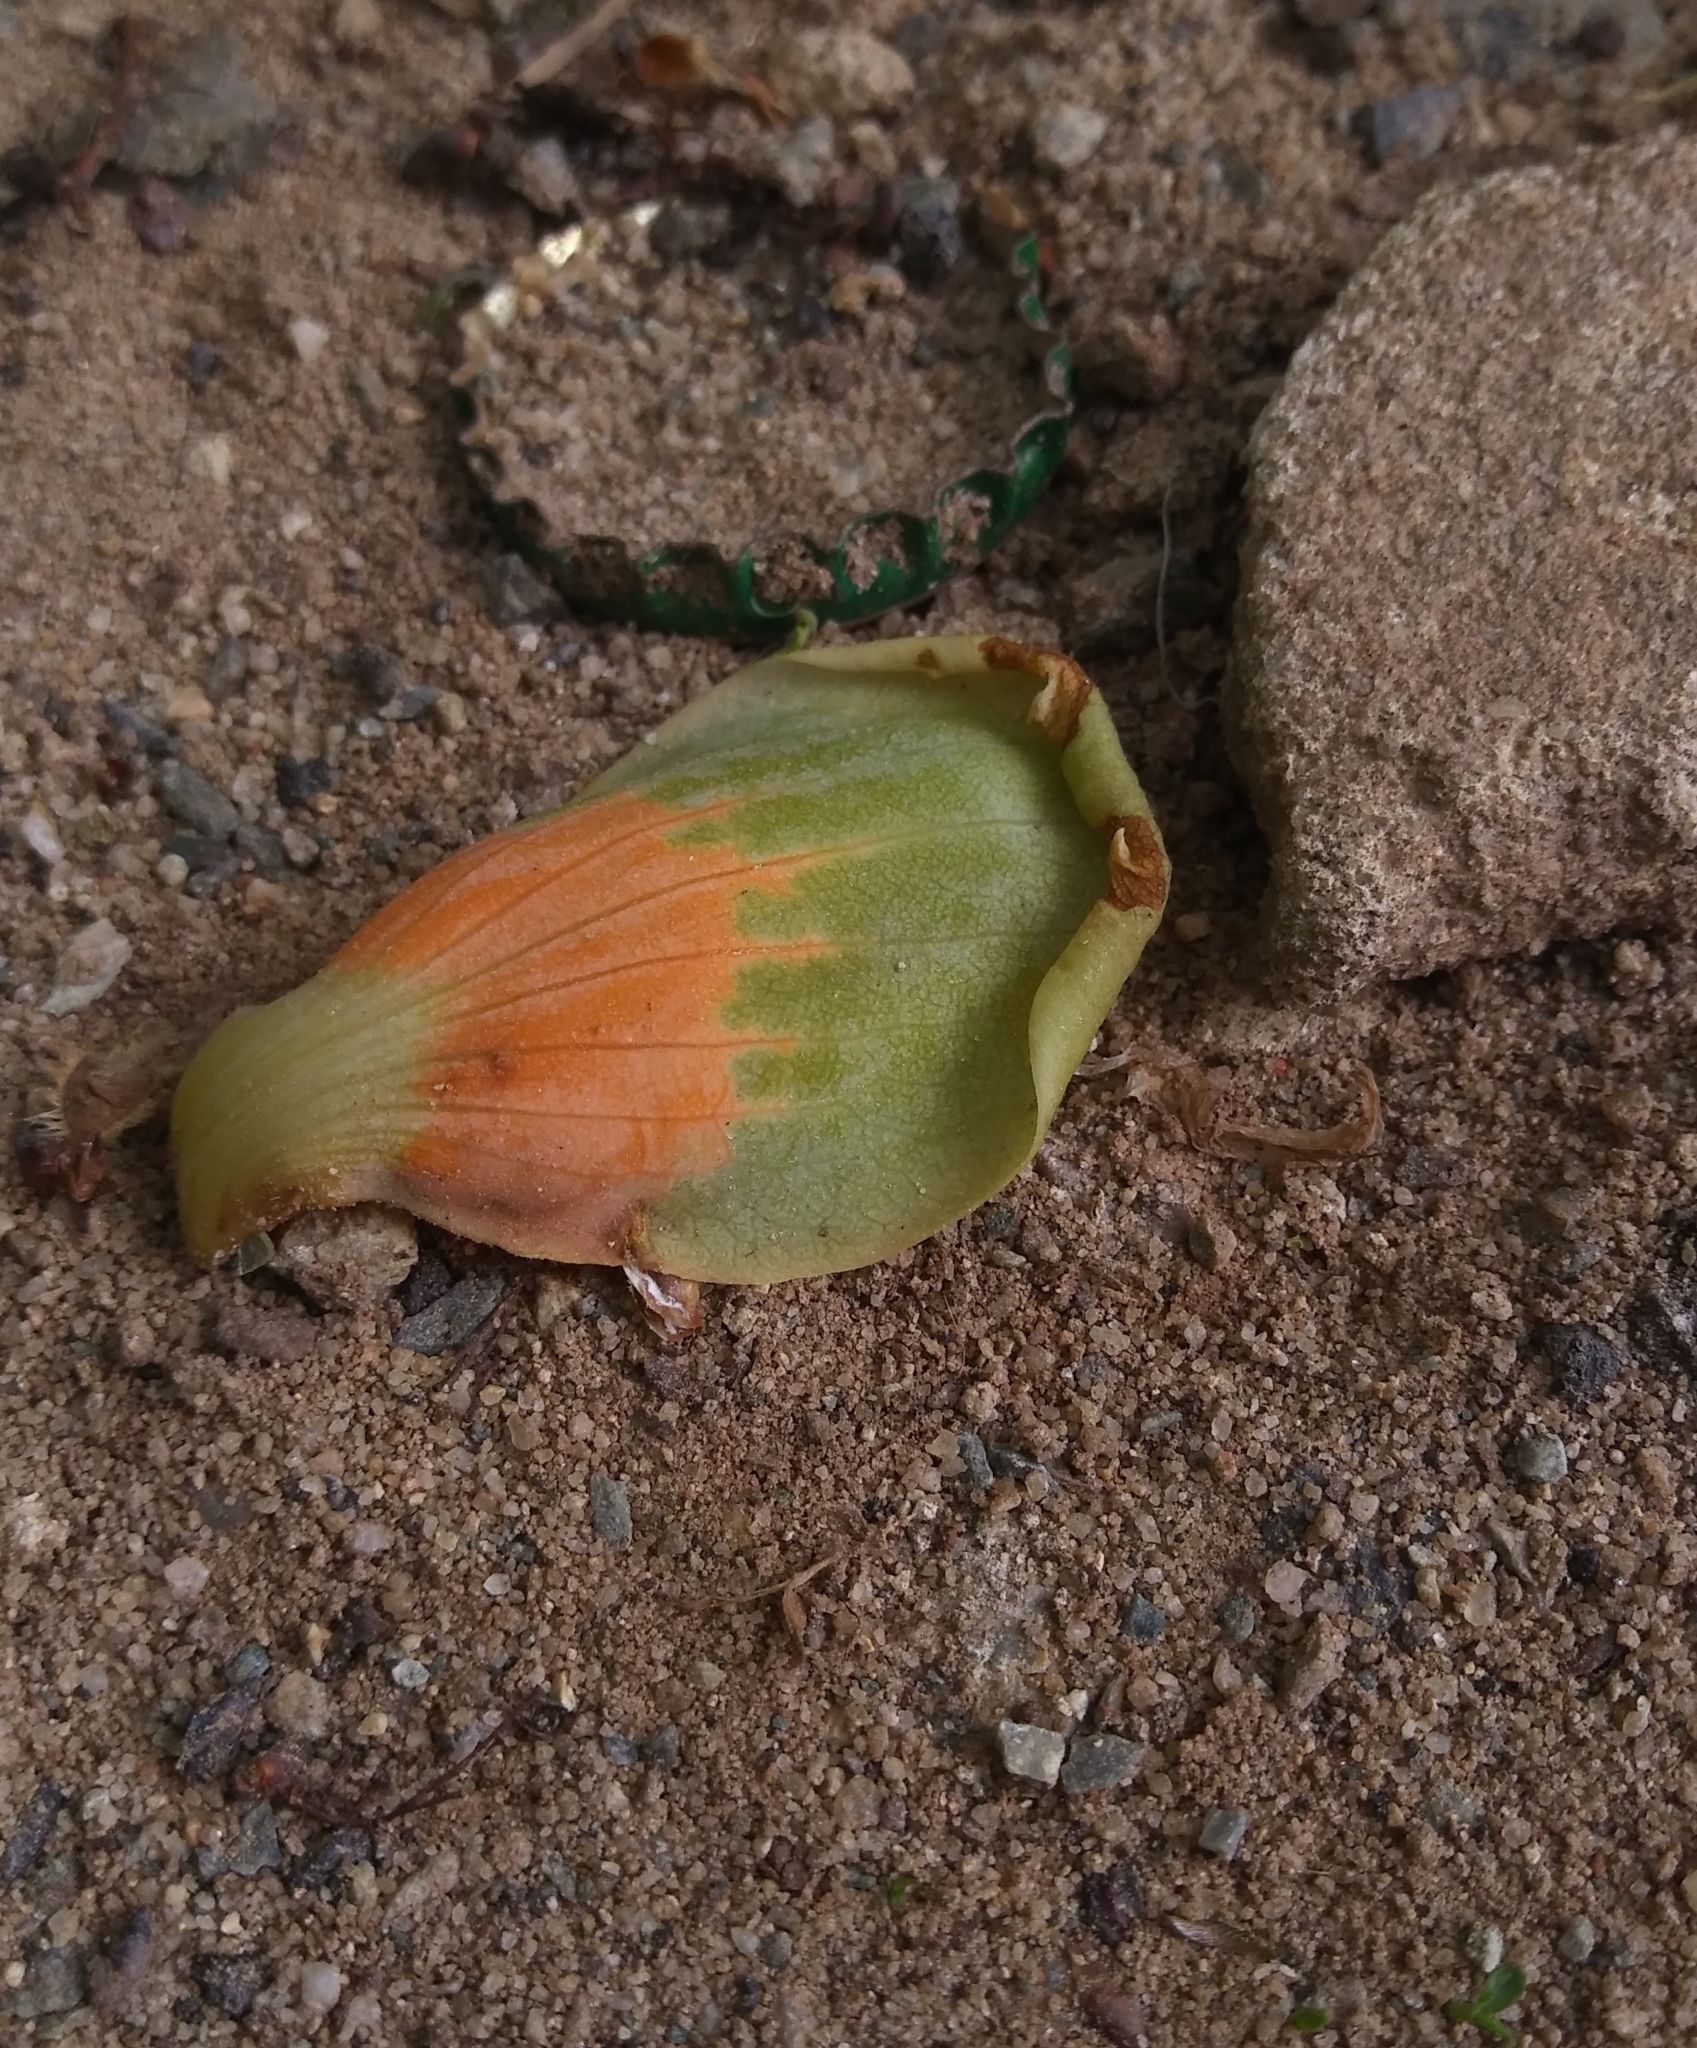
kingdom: Plantae
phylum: Tracheophyta
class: Magnoliopsida
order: Magnoliales
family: Magnoliaceae
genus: Liriodendron
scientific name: Liriodendron tulipifera
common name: Tulip tree
